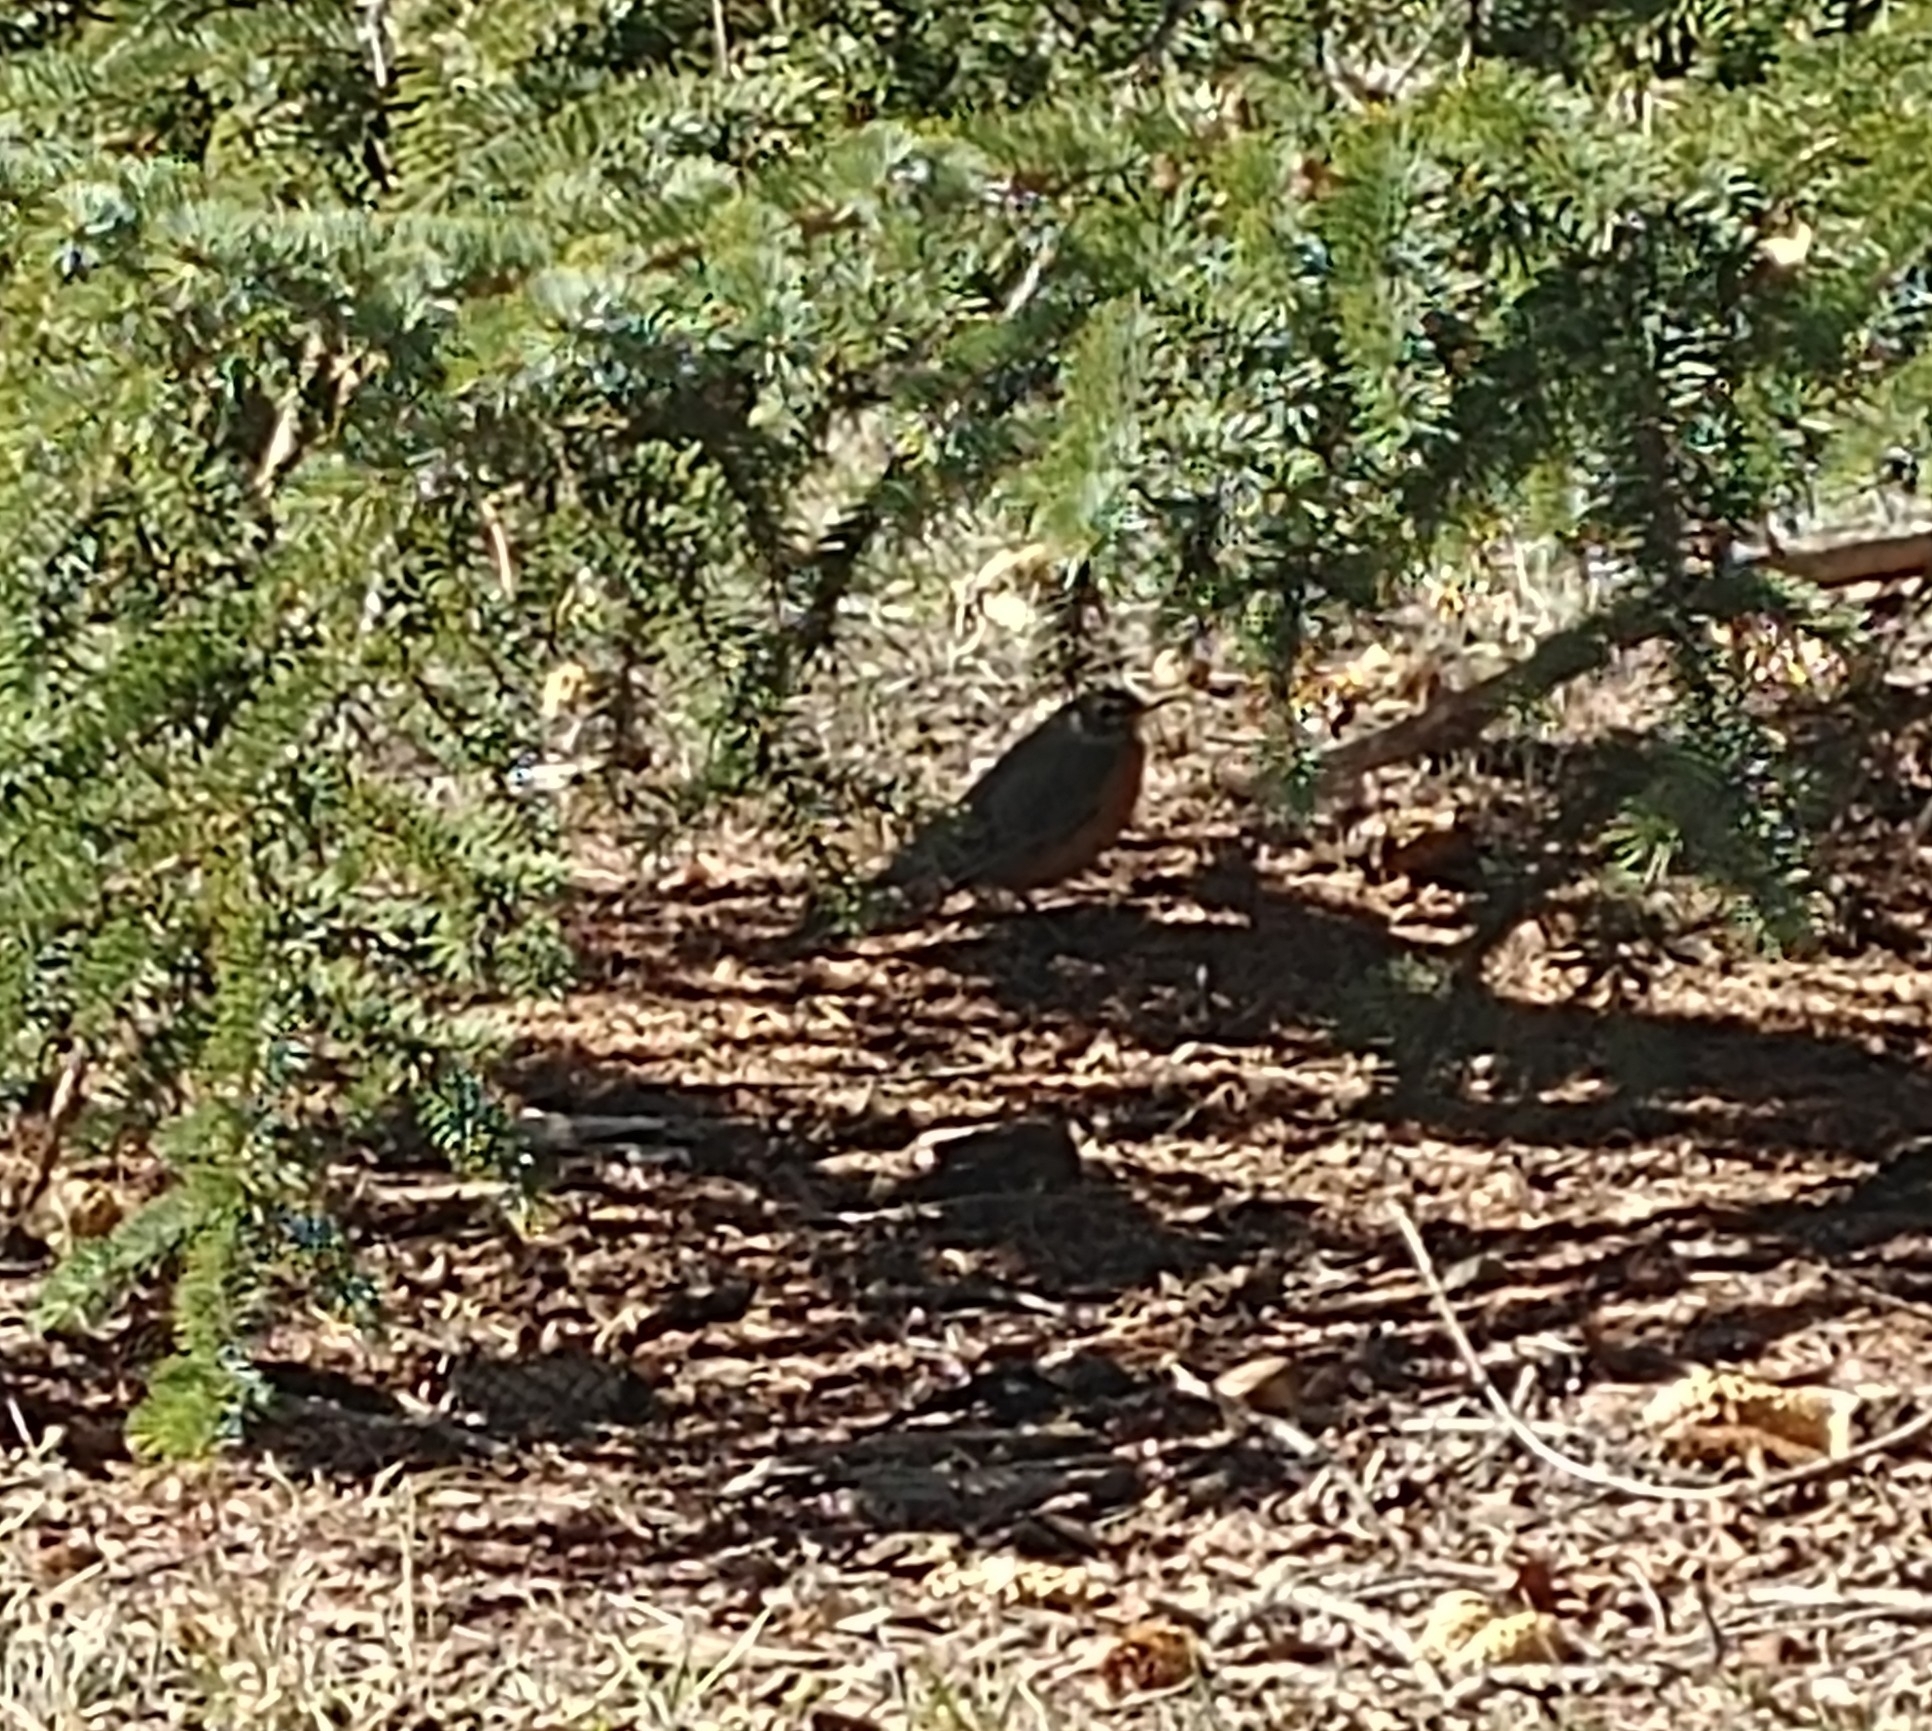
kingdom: Animalia
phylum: Chordata
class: Aves
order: Passeriformes
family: Turdidae
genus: Turdus
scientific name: Turdus migratorius
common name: American robin
